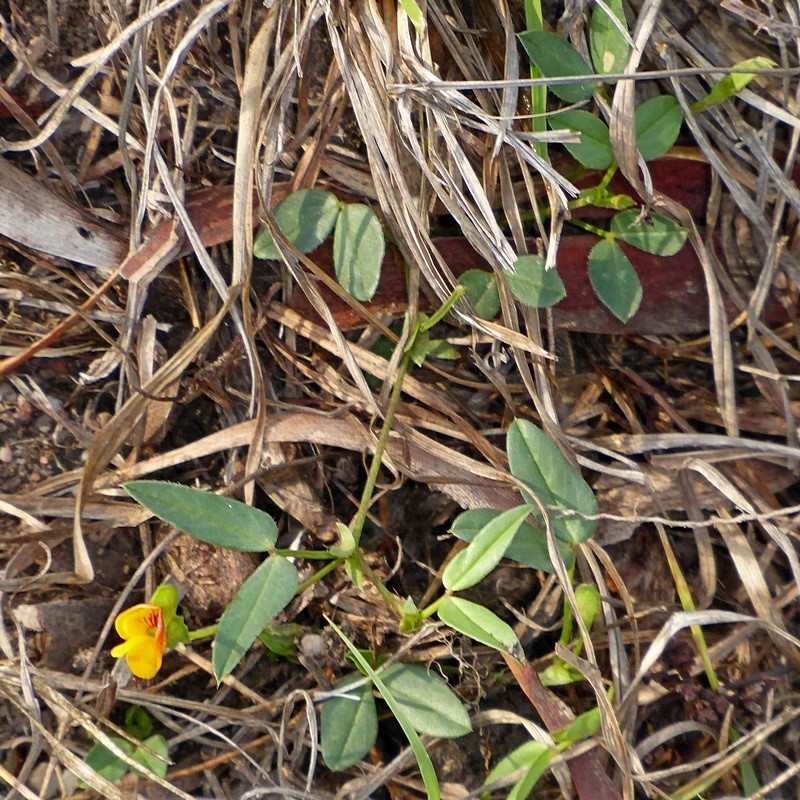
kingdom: Plantae
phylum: Tracheophyta
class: Magnoliopsida
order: Fabales
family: Fabaceae
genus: Zornia
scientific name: Zornia dyctiocarpa
